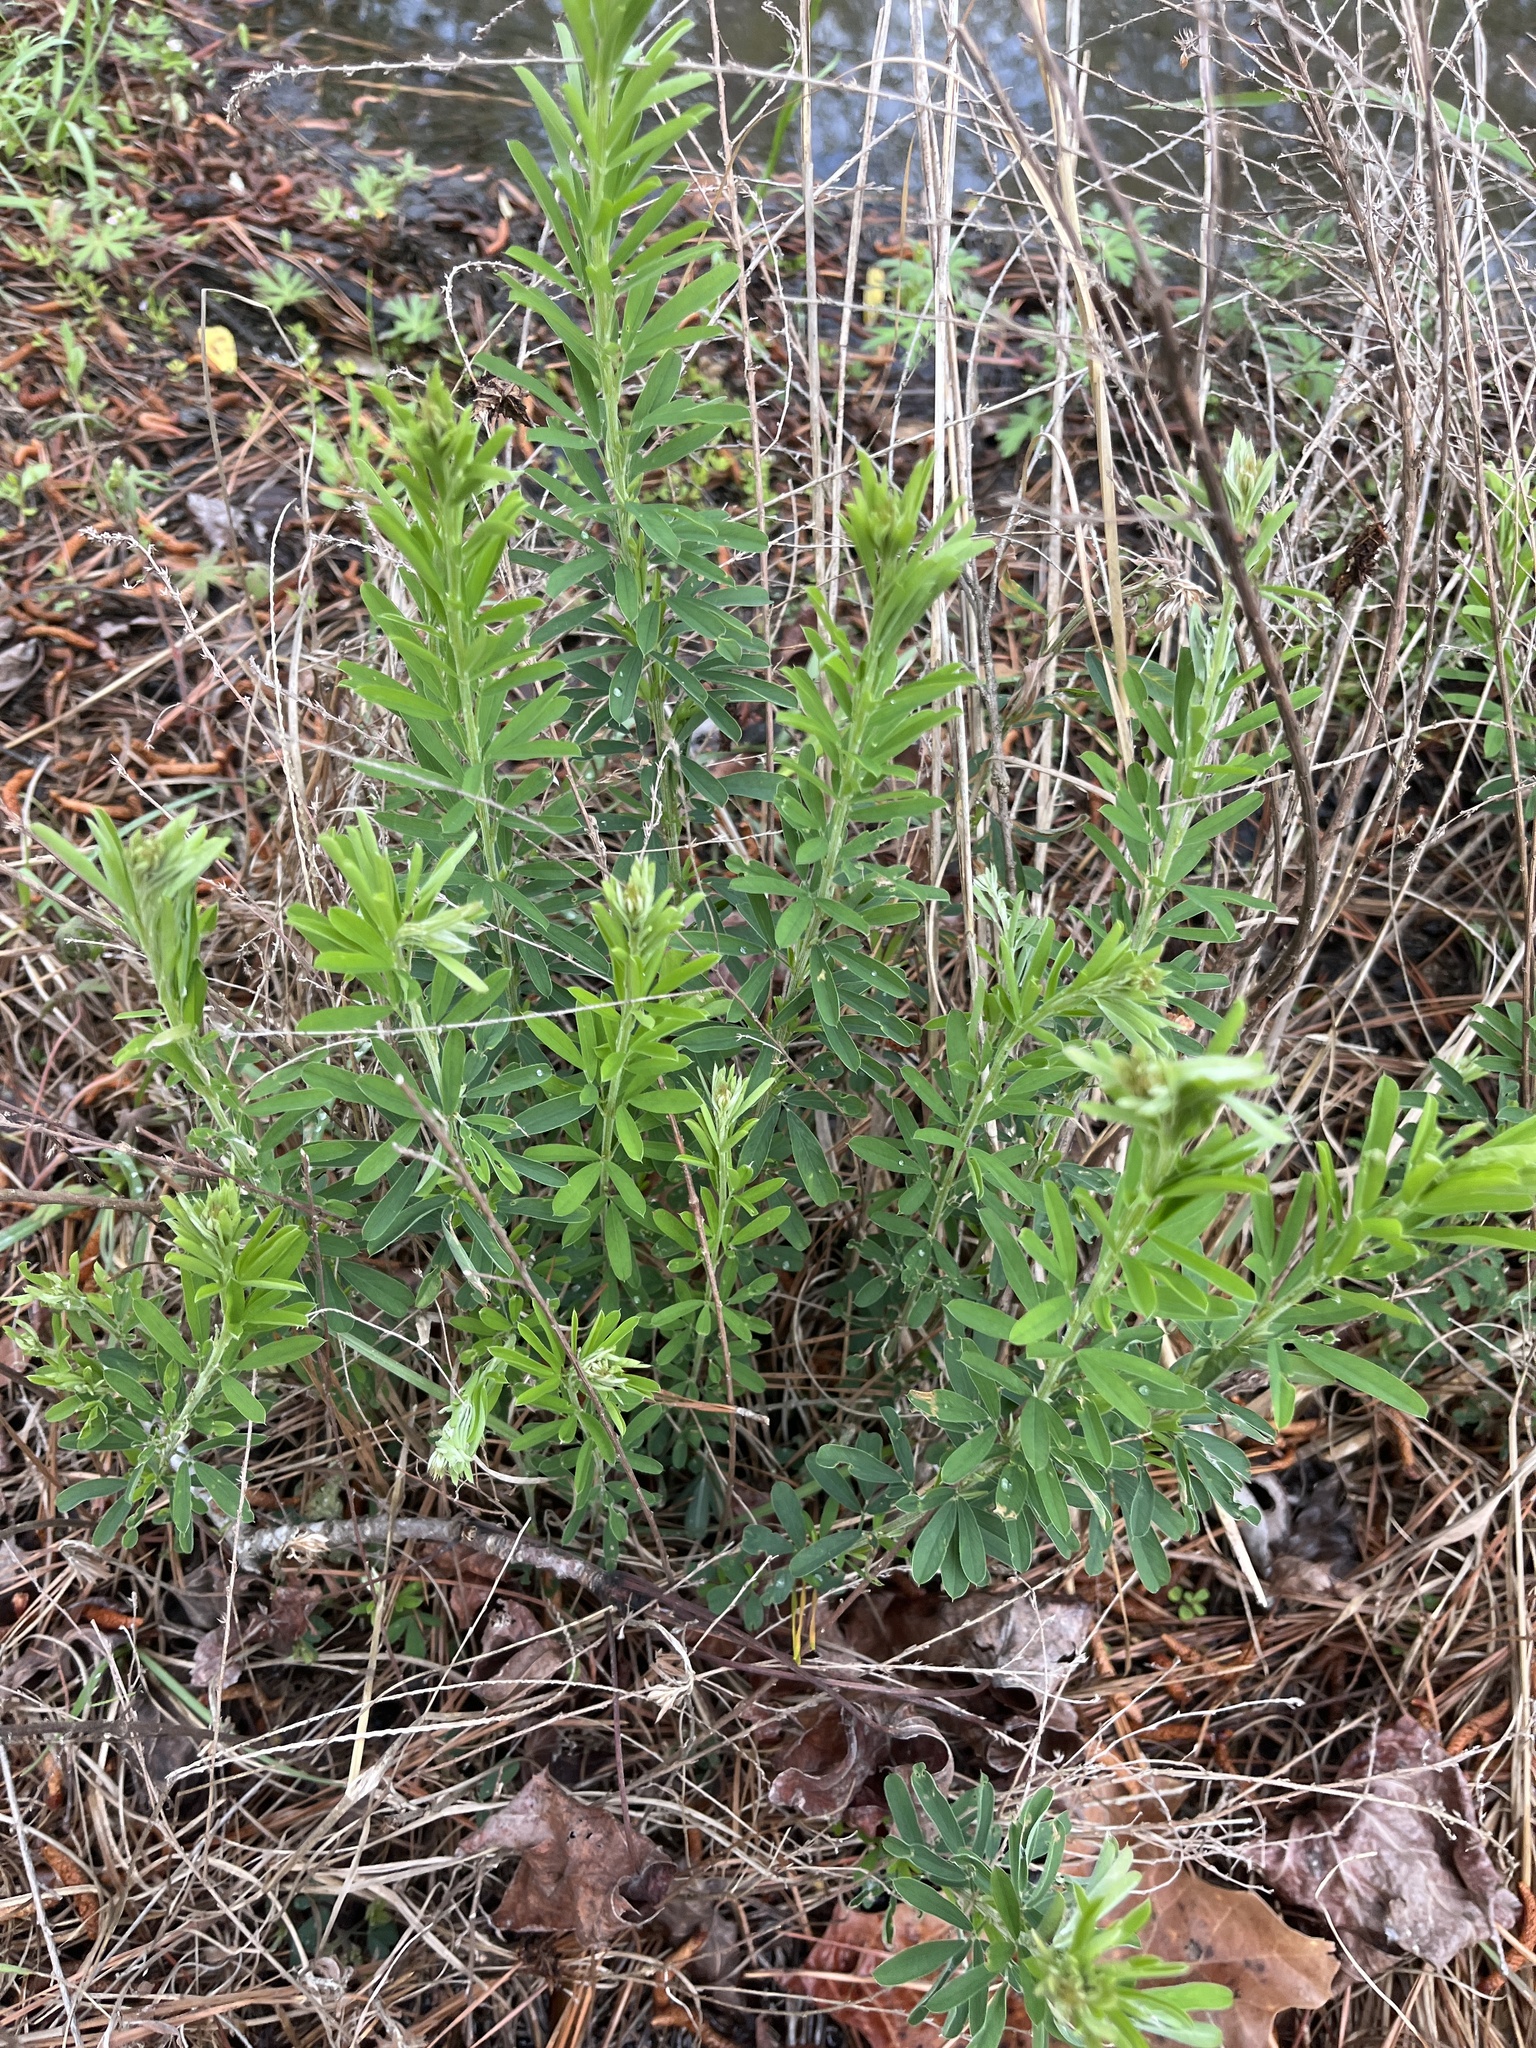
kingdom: Plantae
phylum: Tracheophyta
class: Magnoliopsida
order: Fabales
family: Fabaceae
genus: Lespedeza
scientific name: Lespedeza cuneata
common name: Chinese bush-clover
